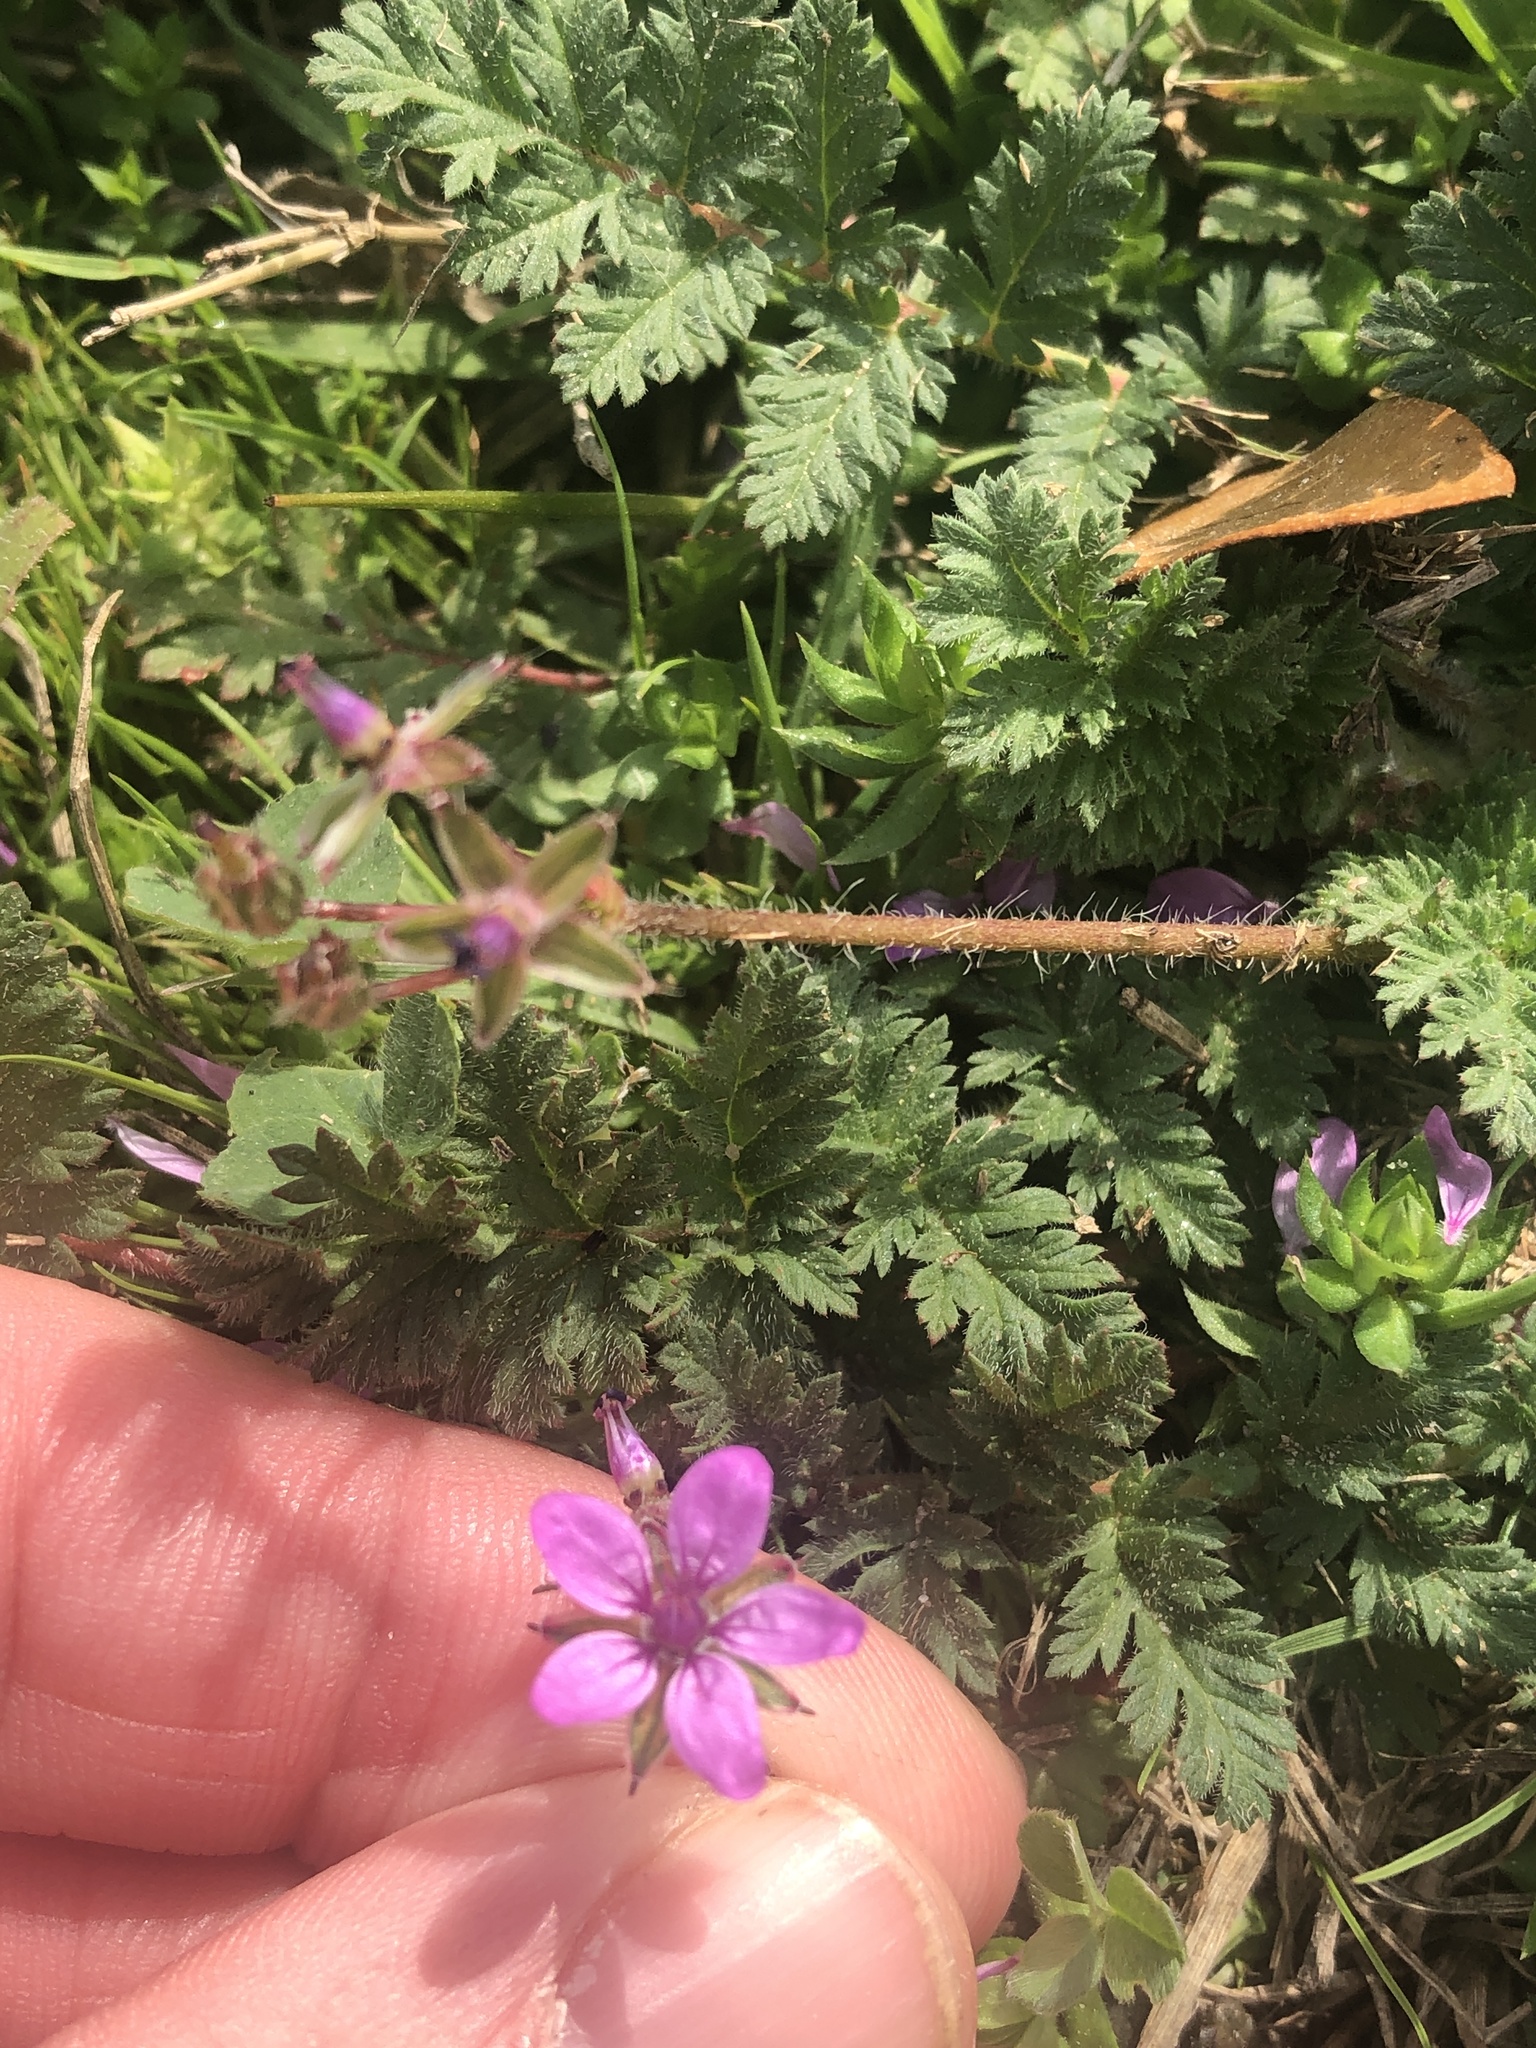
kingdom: Plantae
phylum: Tracheophyta
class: Magnoliopsida
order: Geraniales
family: Geraniaceae
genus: Erodium
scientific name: Erodium cicutarium
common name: Common stork's-bill
